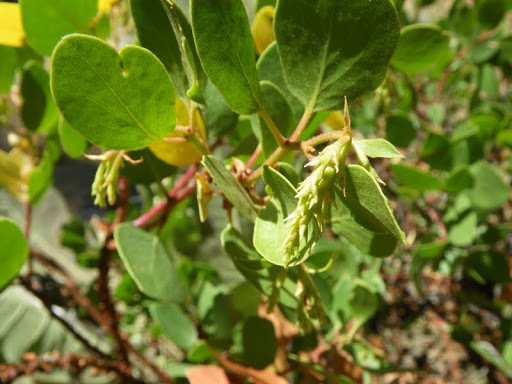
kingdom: Plantae
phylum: Tracheophyta
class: Magnoliopsida
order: Ericales
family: Ericaceae
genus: Arctostaphylos
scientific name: Arctostaphylos patula
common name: Green-leaf manzanita
